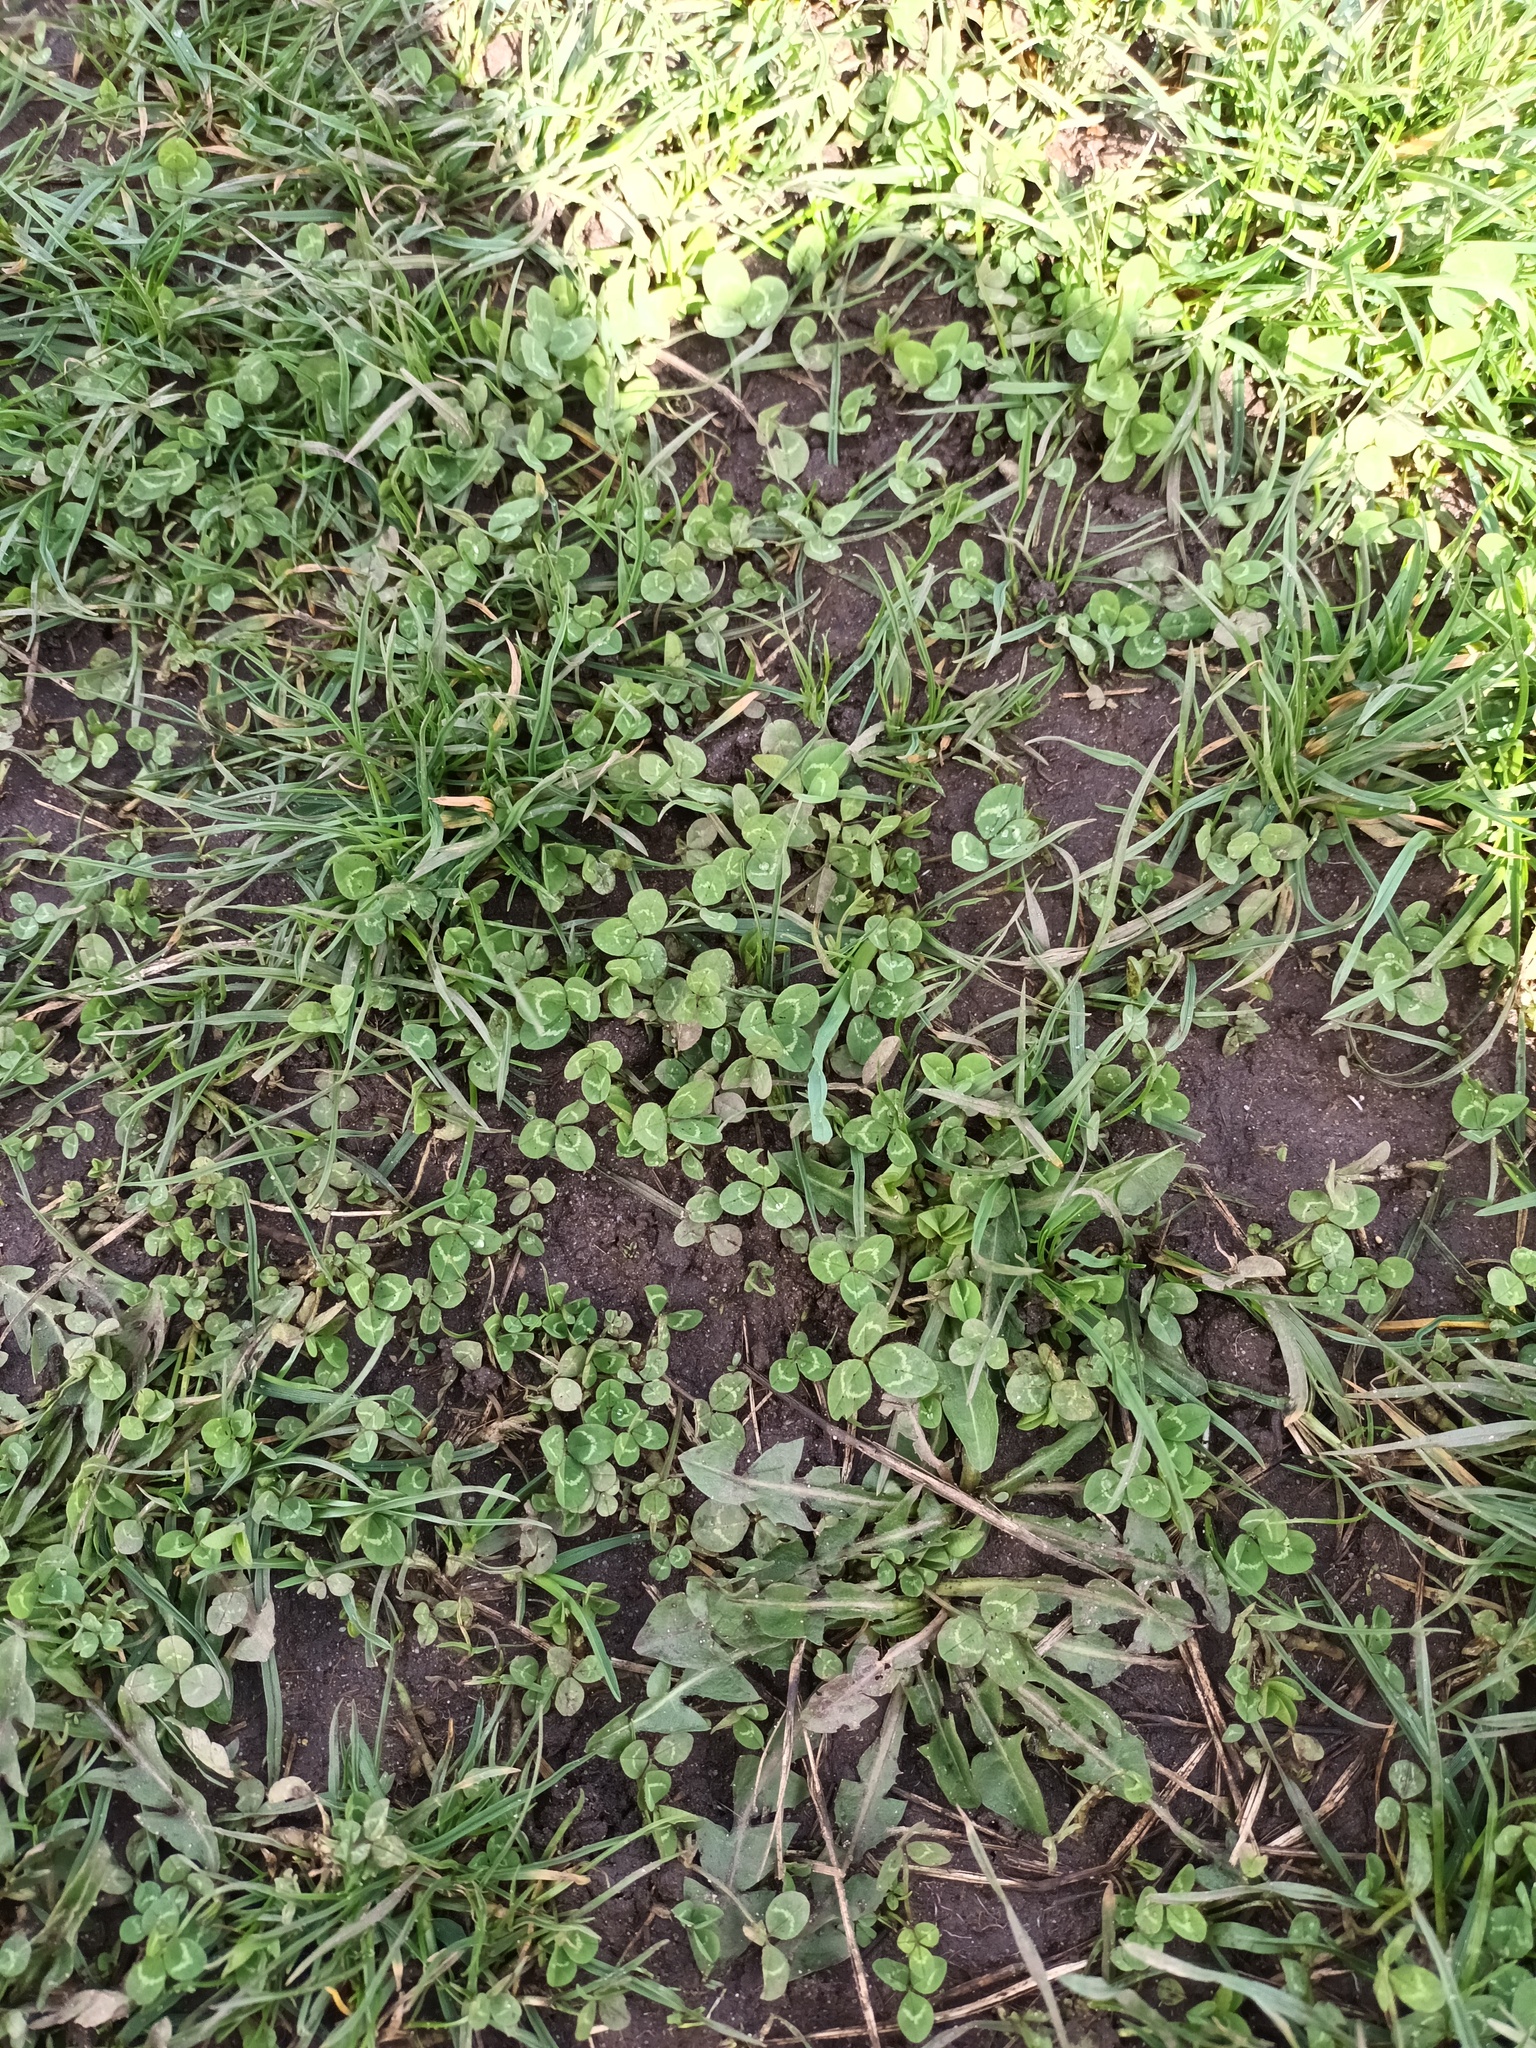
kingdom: Plantae
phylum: Tracheophyta
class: Magnoliopsida
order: Fabales
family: Fabaceae
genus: Trifolium
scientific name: Trifolium repens
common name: White clover
